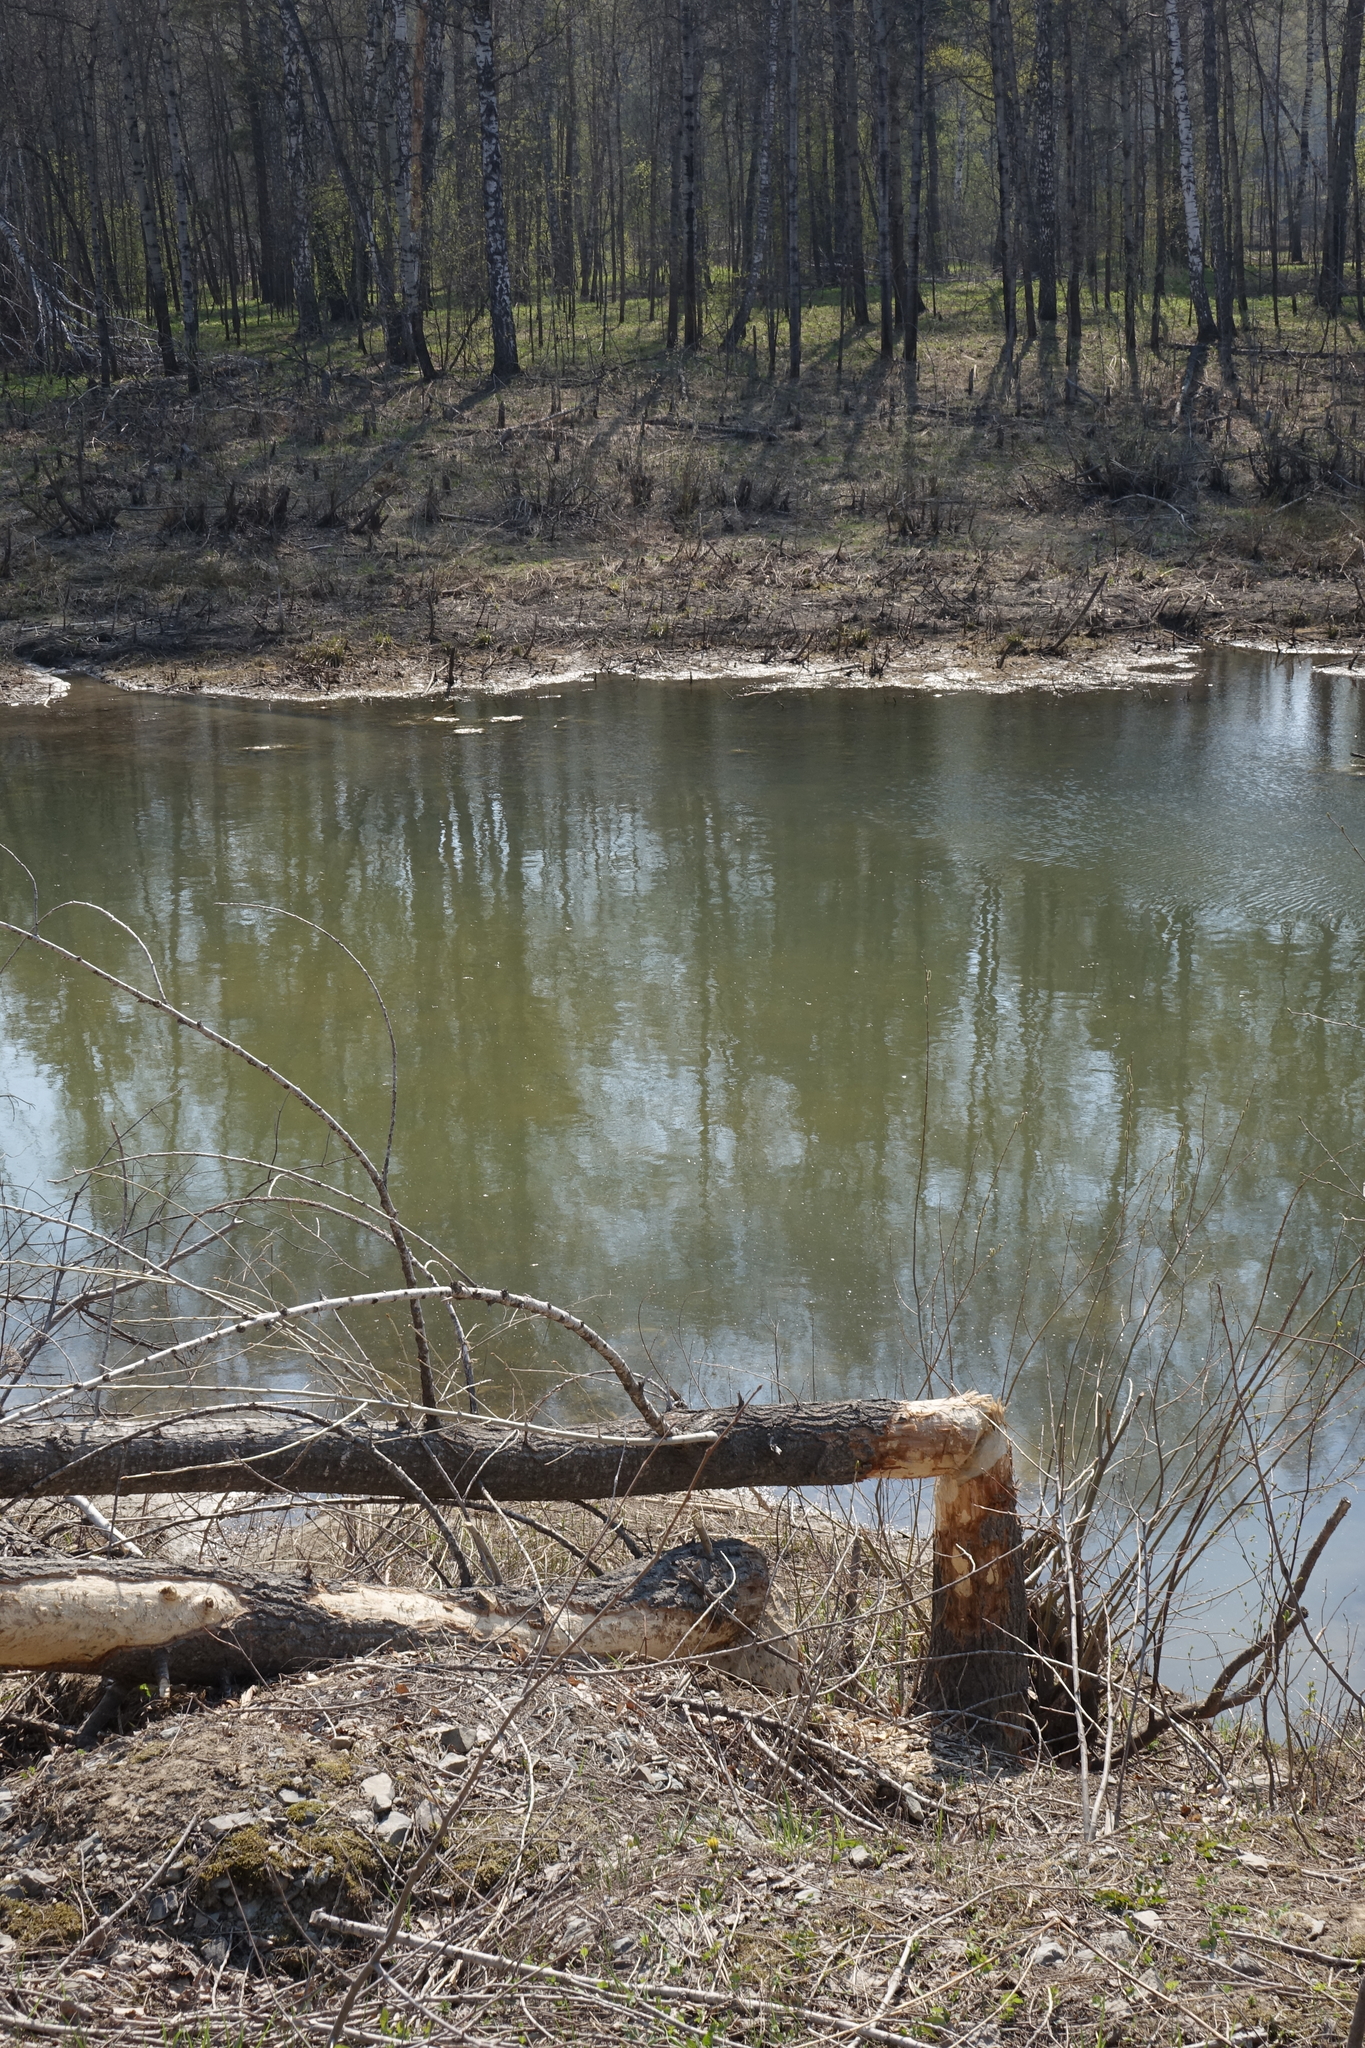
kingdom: Animalia
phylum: Chordata
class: Mammalia
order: Rodentia
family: Castoridae
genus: Castor
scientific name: Castor fiber
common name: Eurasian beaver
